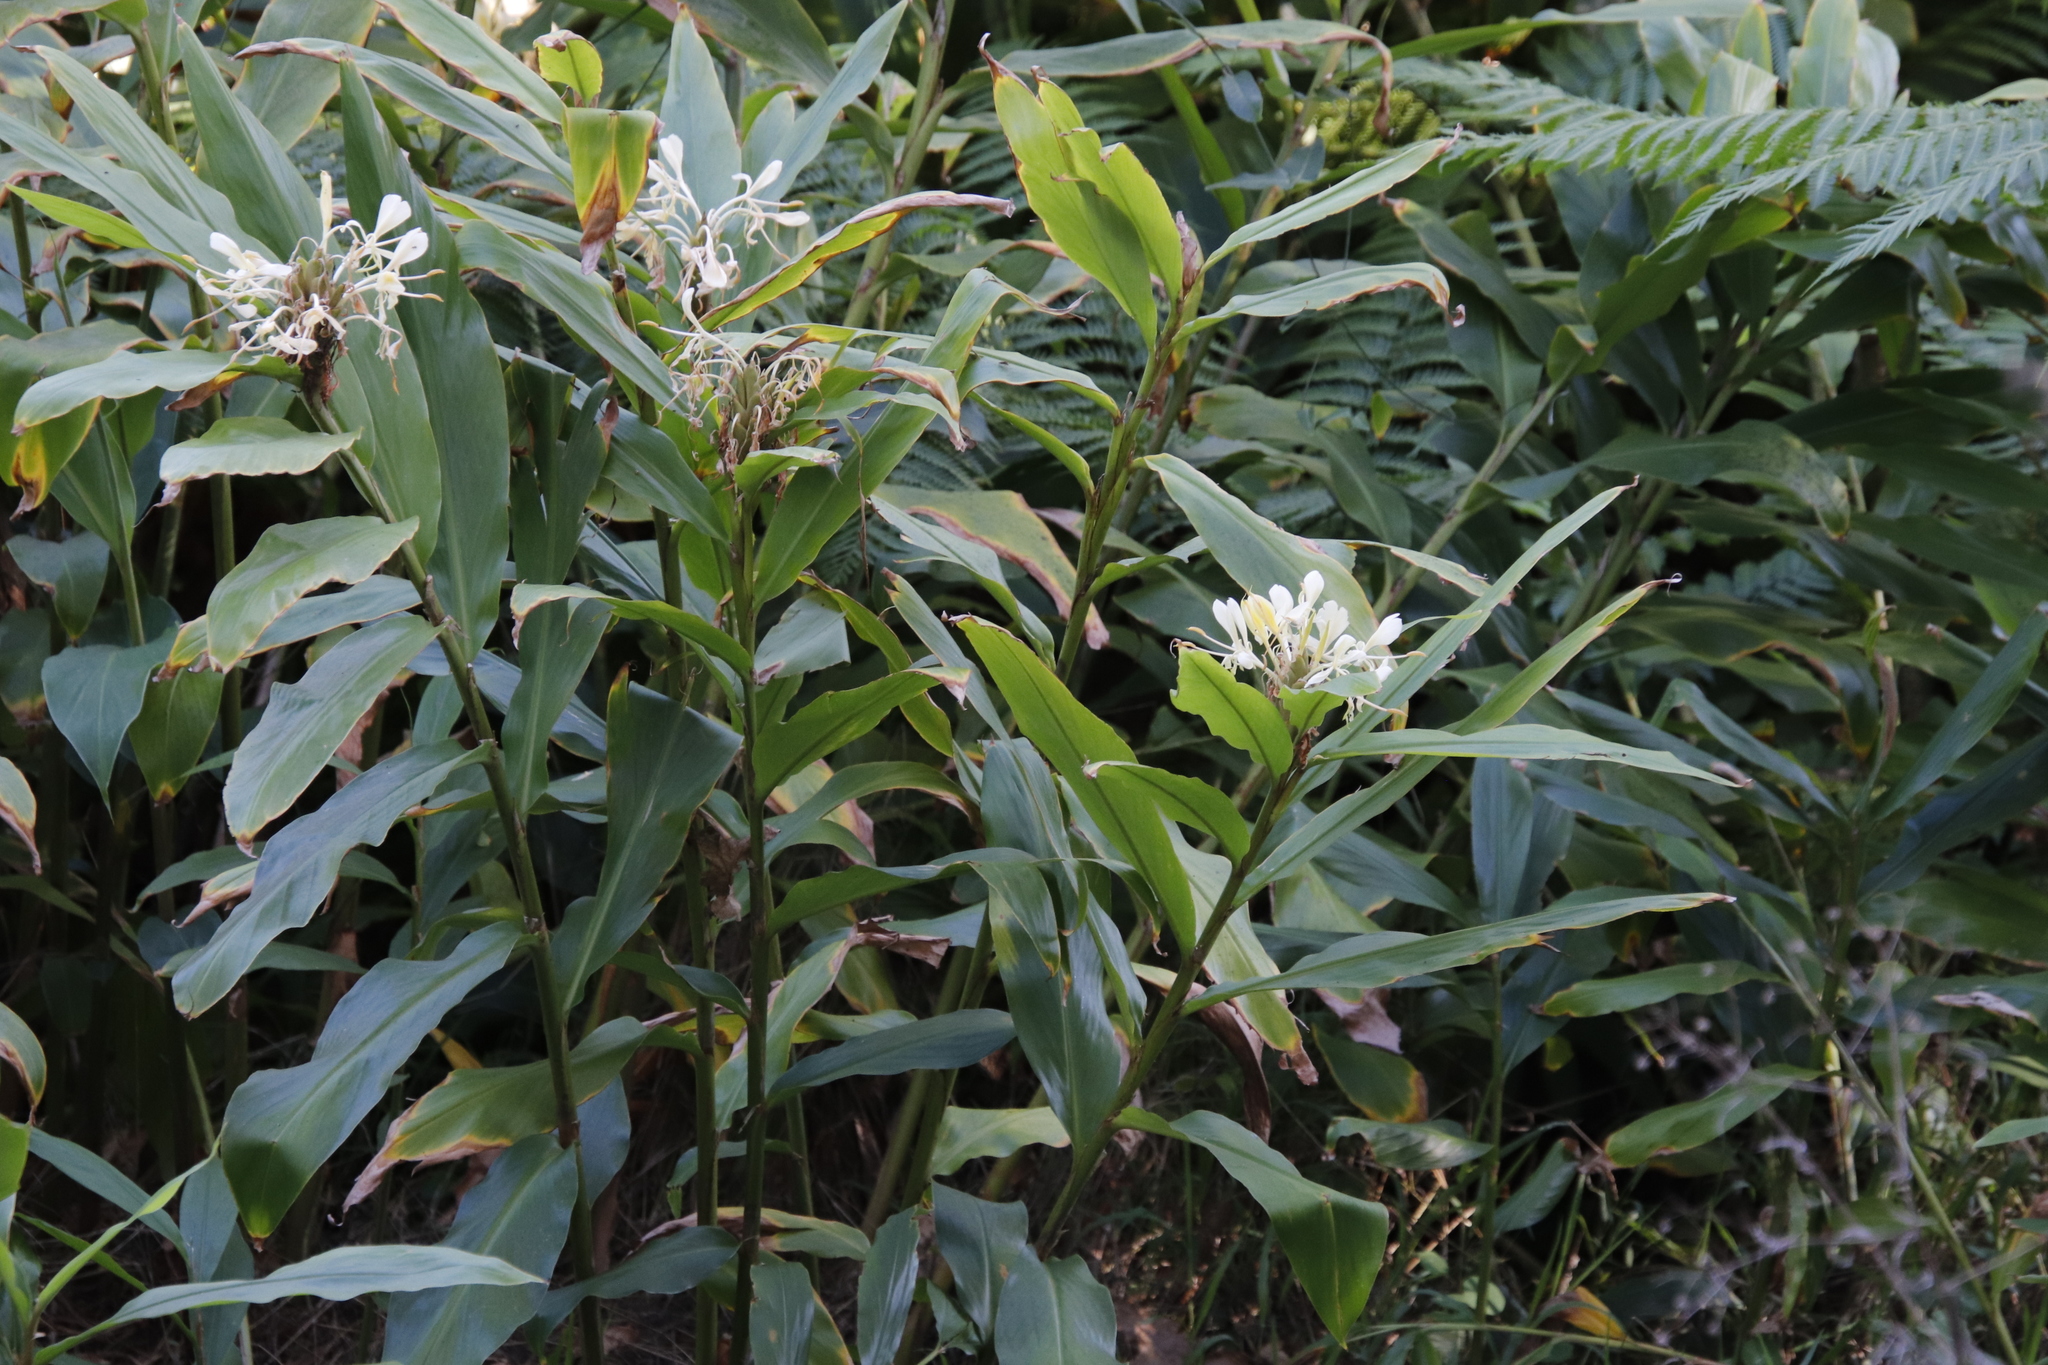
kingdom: Plantae
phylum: Tracheophyta
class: Liliopsida
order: Zingiberales
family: Zingiberaceae
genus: Hedychium
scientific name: Hedychium flavescens
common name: Yellow ginger
